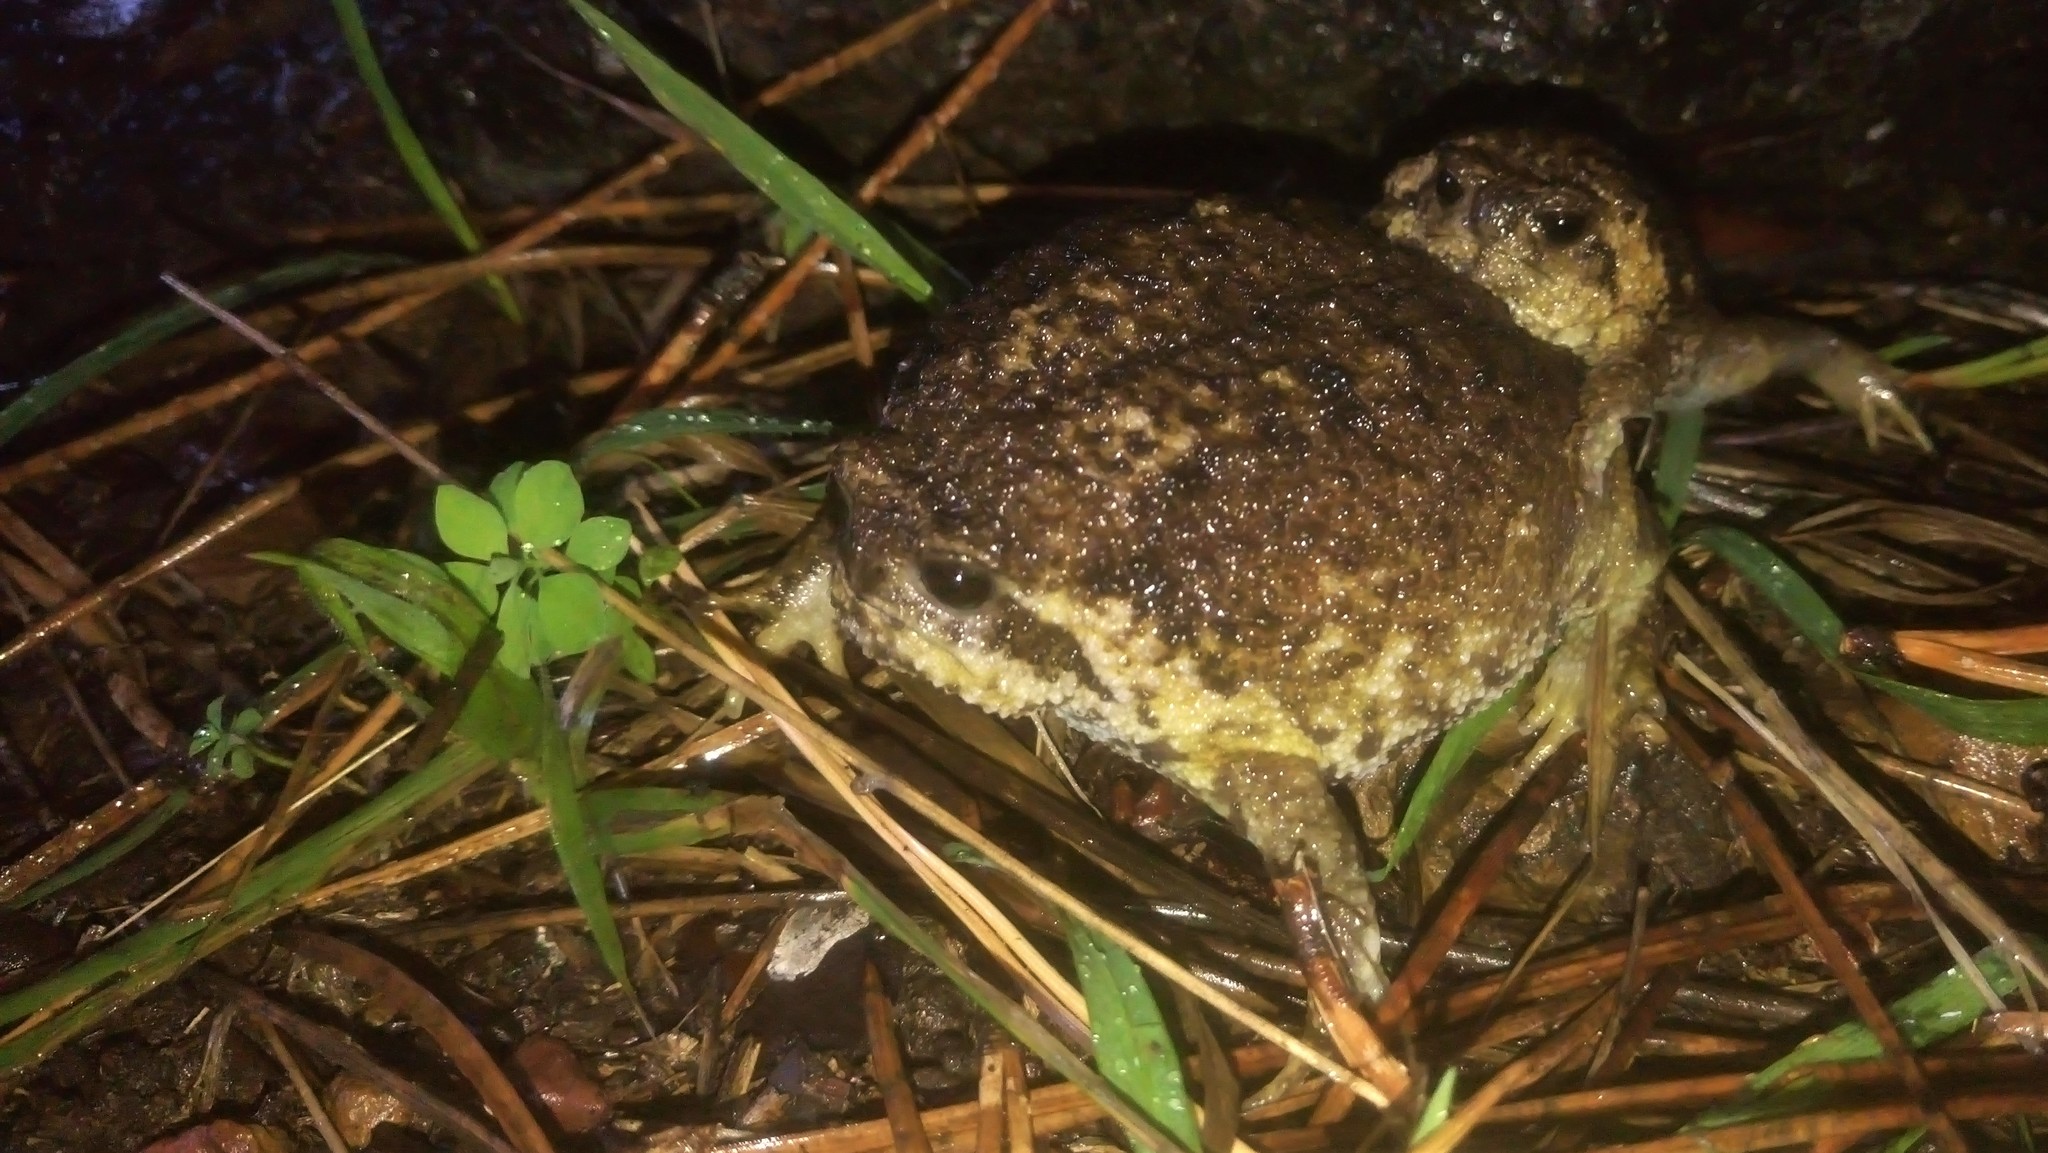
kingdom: Animalia
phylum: Chordata
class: Amphibia
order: Anura
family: Brevicipitidae
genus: Breviceps
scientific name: Breviceps gibbosus
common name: Cape rain frog
